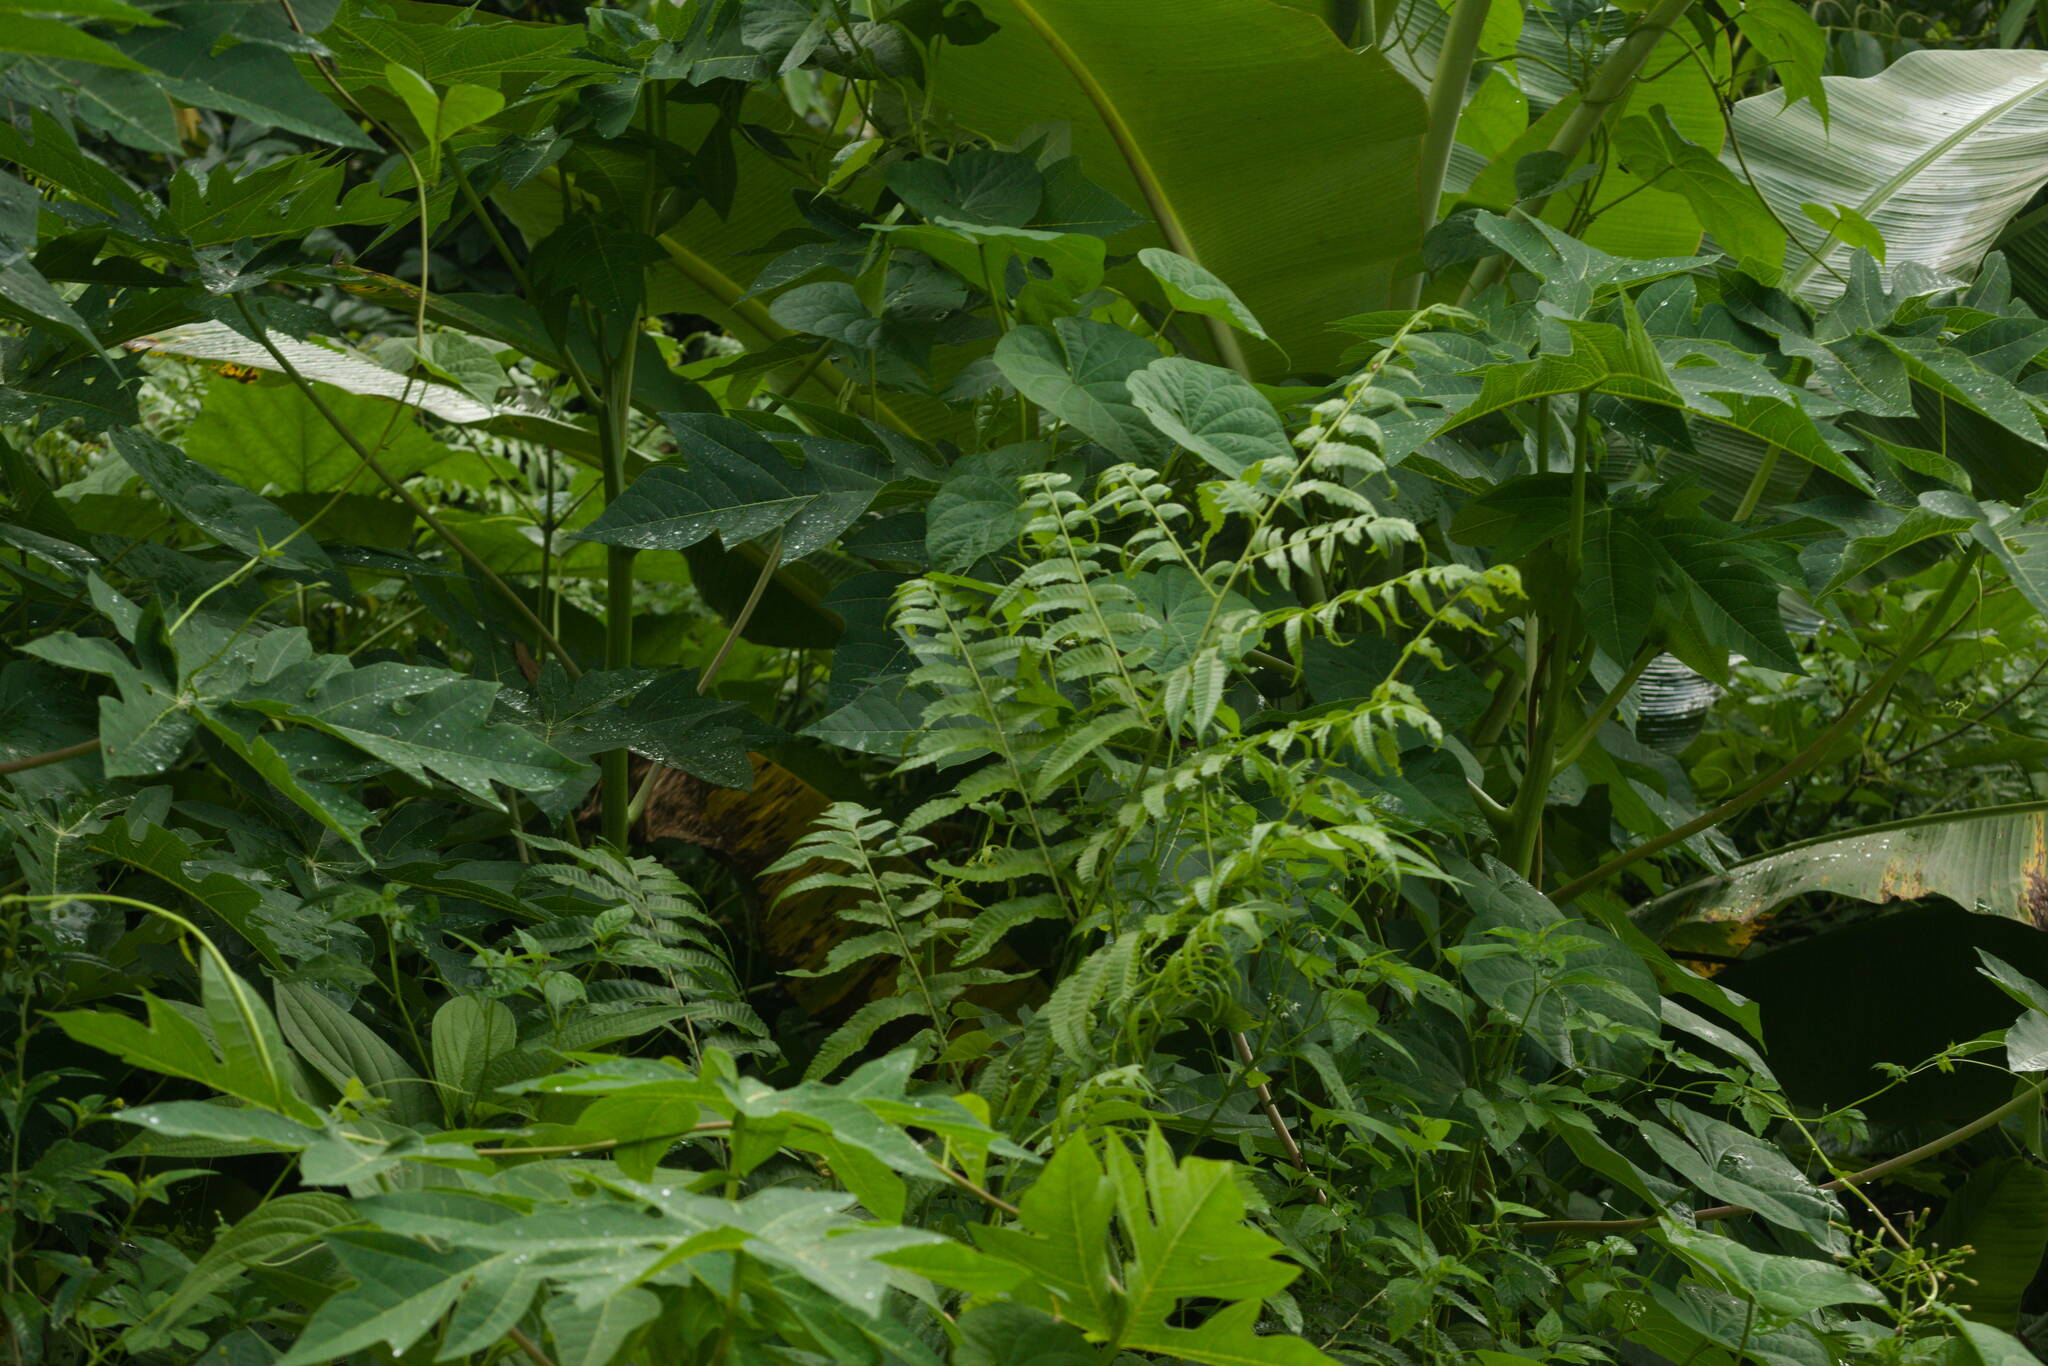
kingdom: Plantae
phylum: Tracheophyta
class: Polypodiopsida
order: Polypodiales
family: Athyriaceae
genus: Diplazium
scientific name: Diplazium esculentum
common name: Vegetable fern
